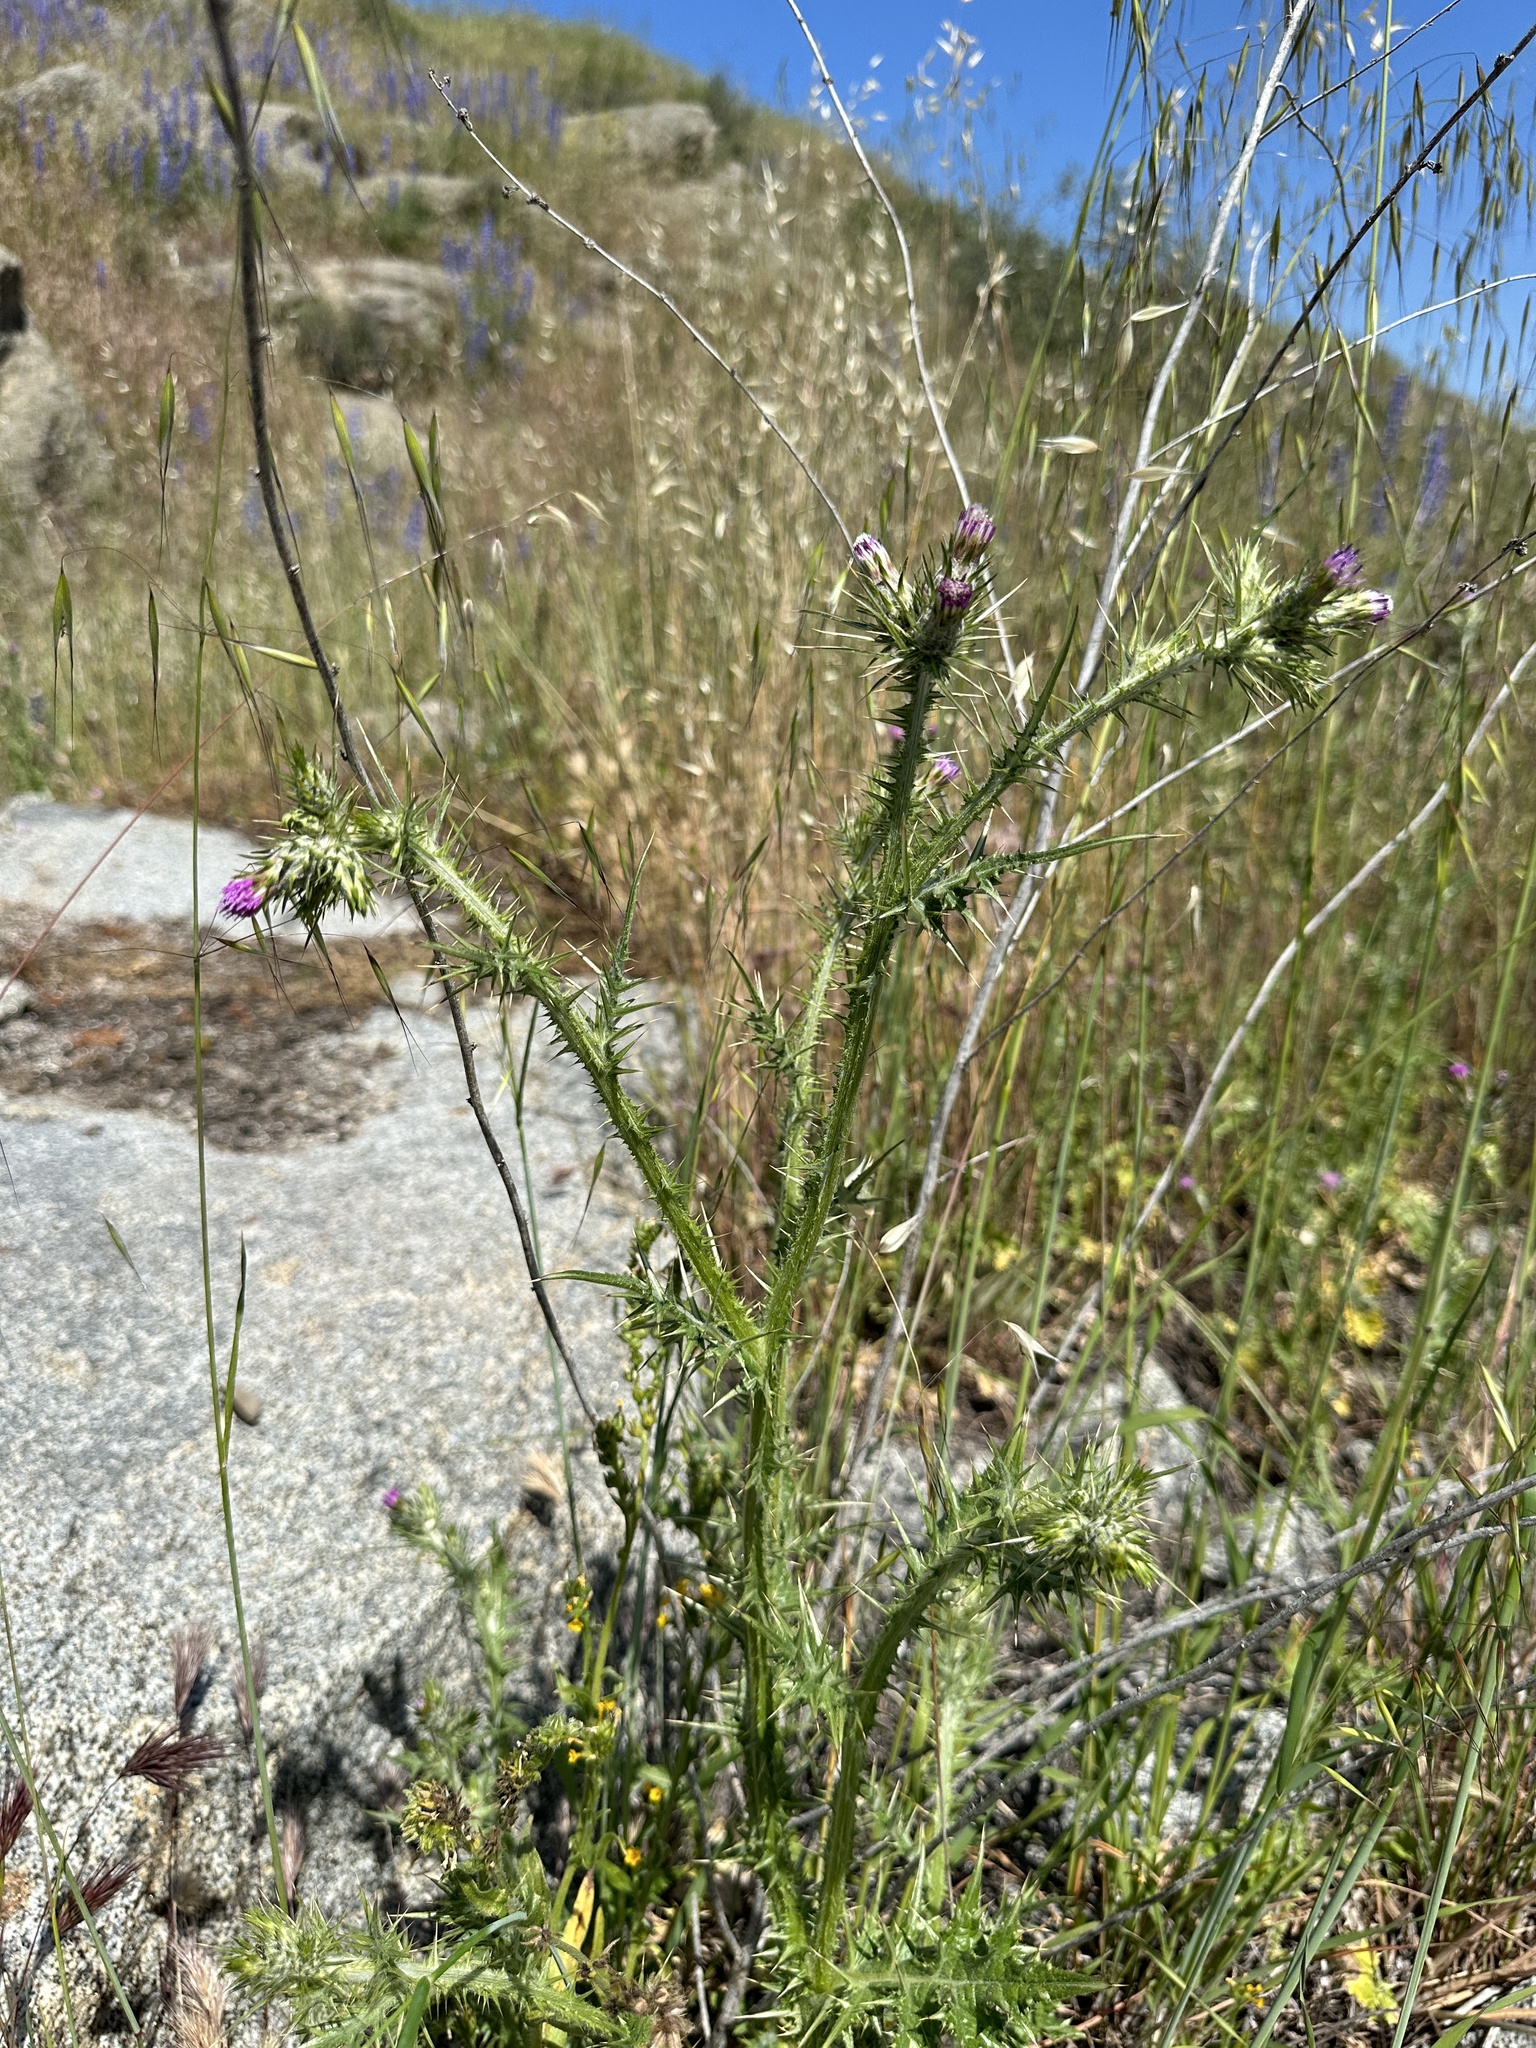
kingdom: Plantae
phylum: Tracheophyta
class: Magnoliopsida
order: Asterales
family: Asteraceae
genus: Carduus
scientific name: Carduus pycnocephalus
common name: Plymouth thistle
